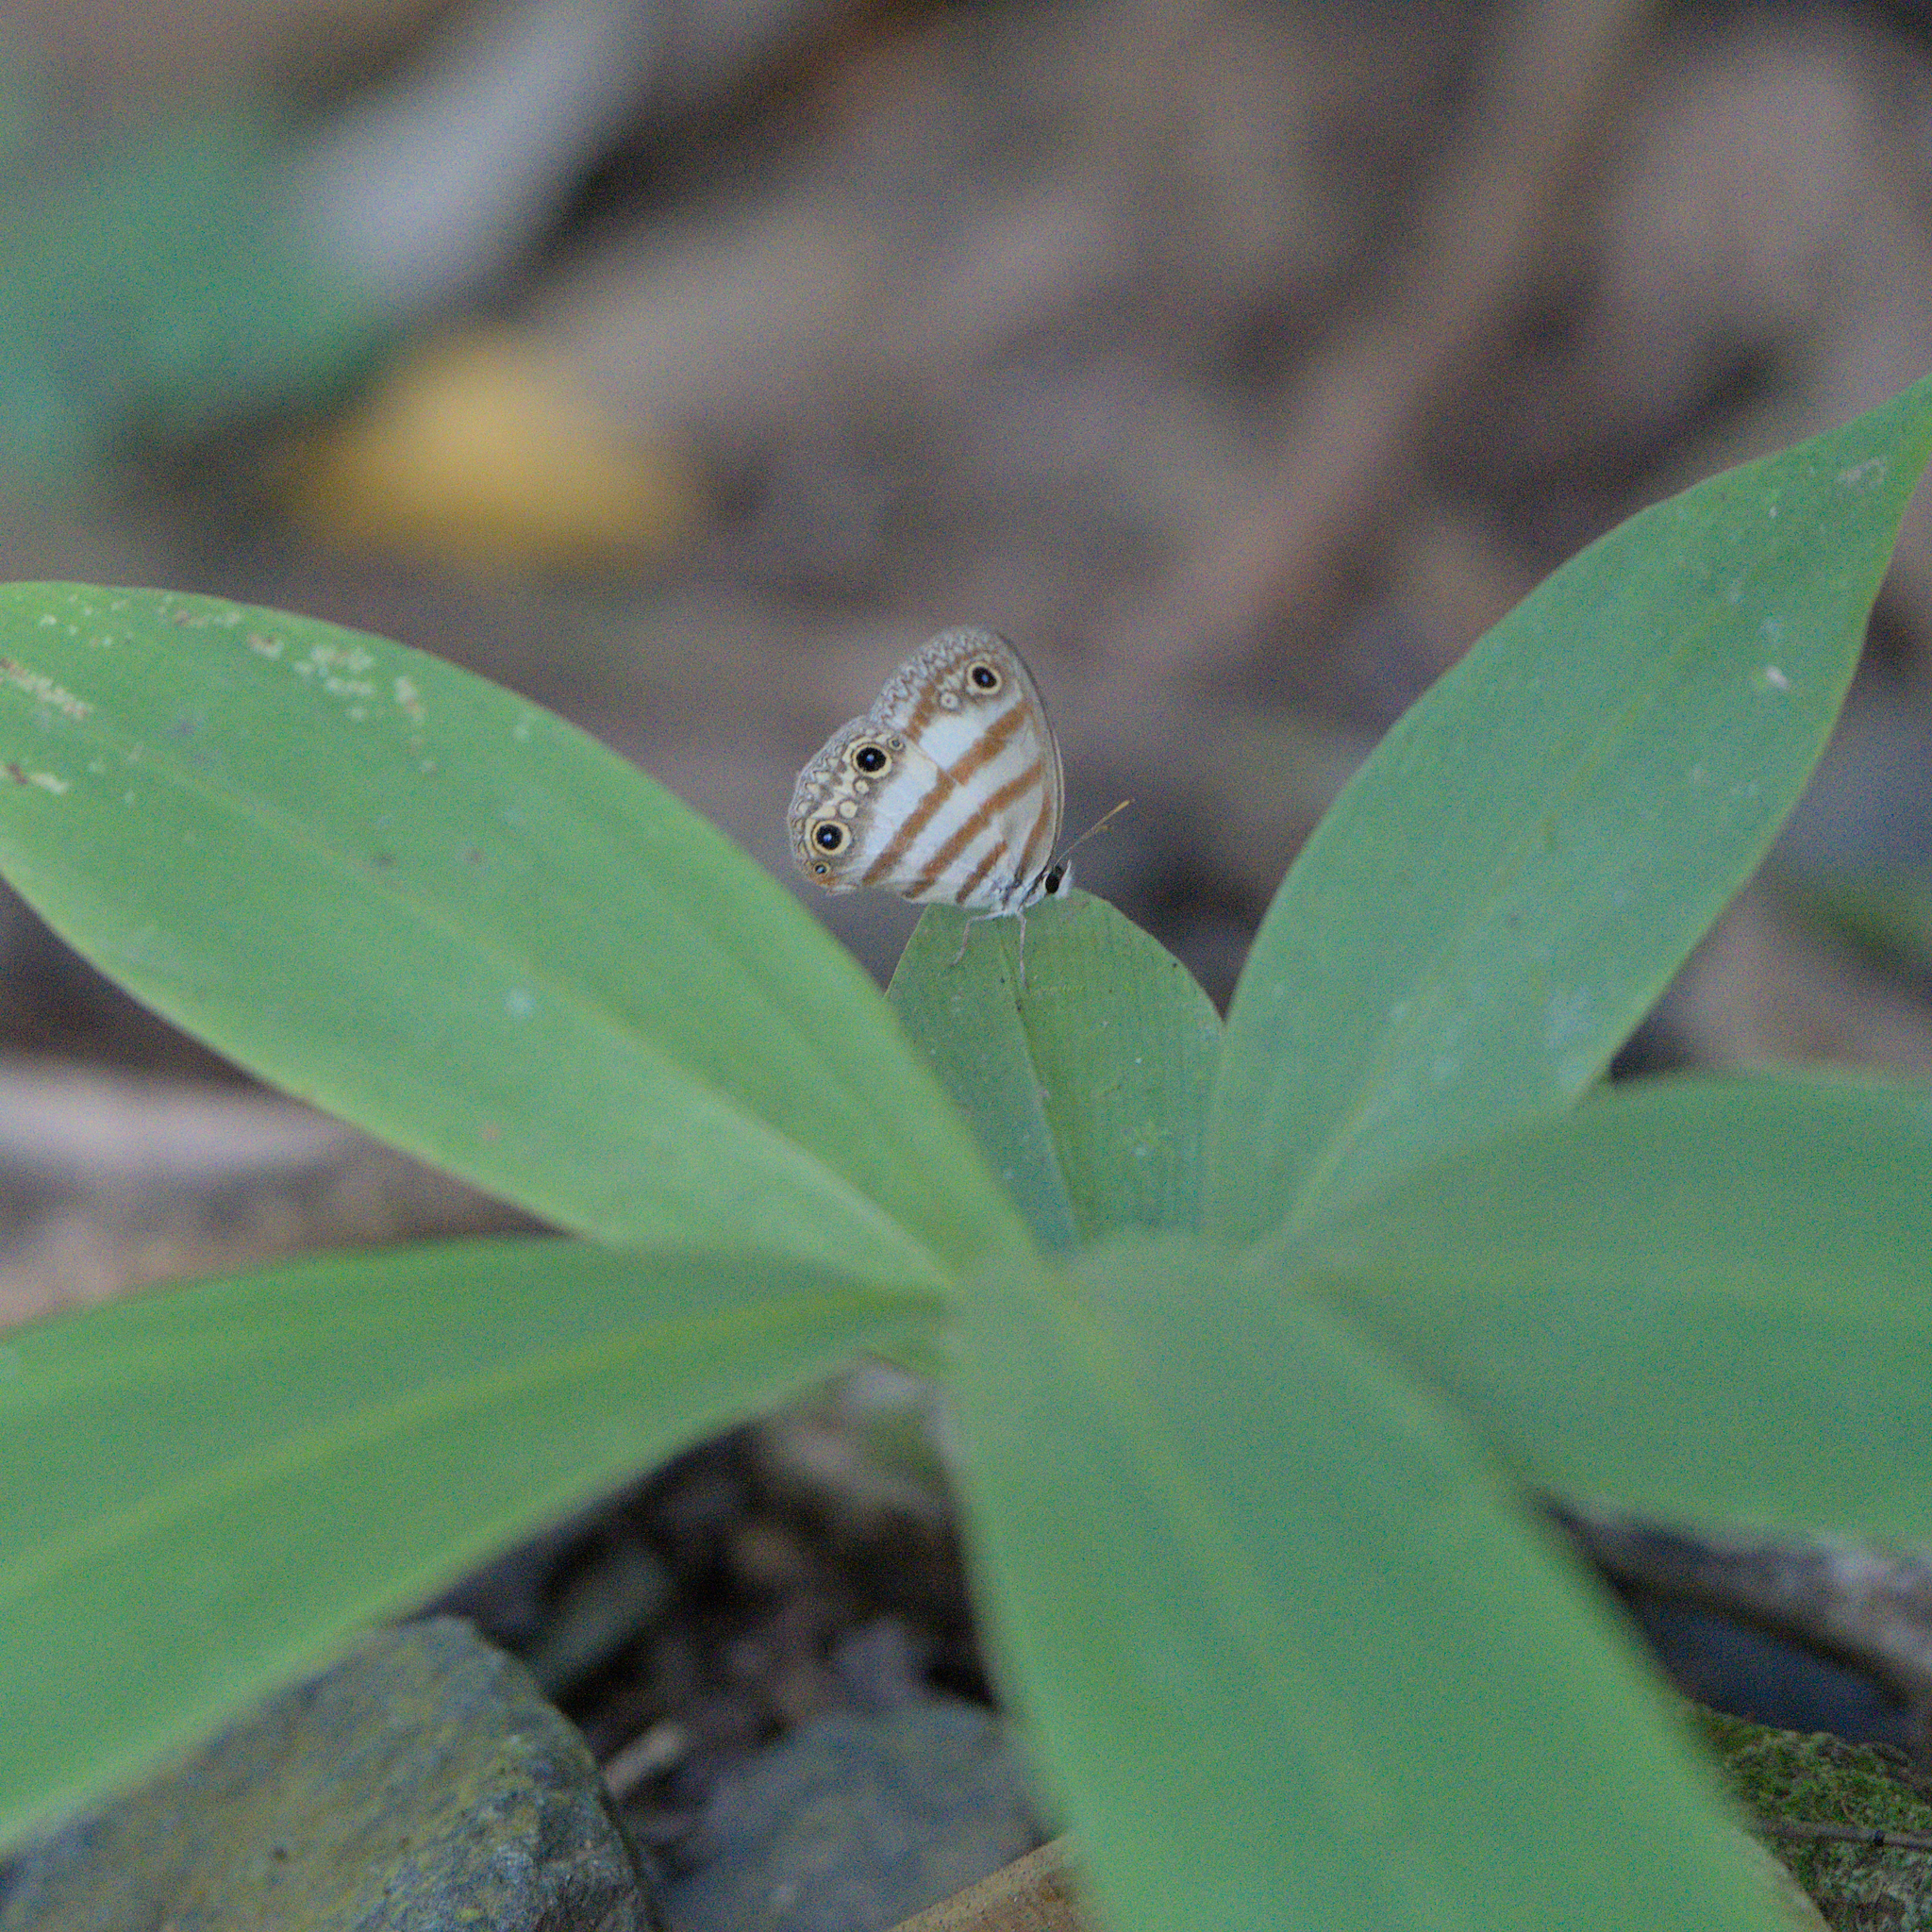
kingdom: Animalia
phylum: Arthropoda
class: Insecta
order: Lepidoptera
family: Nymphalidae
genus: Euptychia
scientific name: Euptychia mollina
